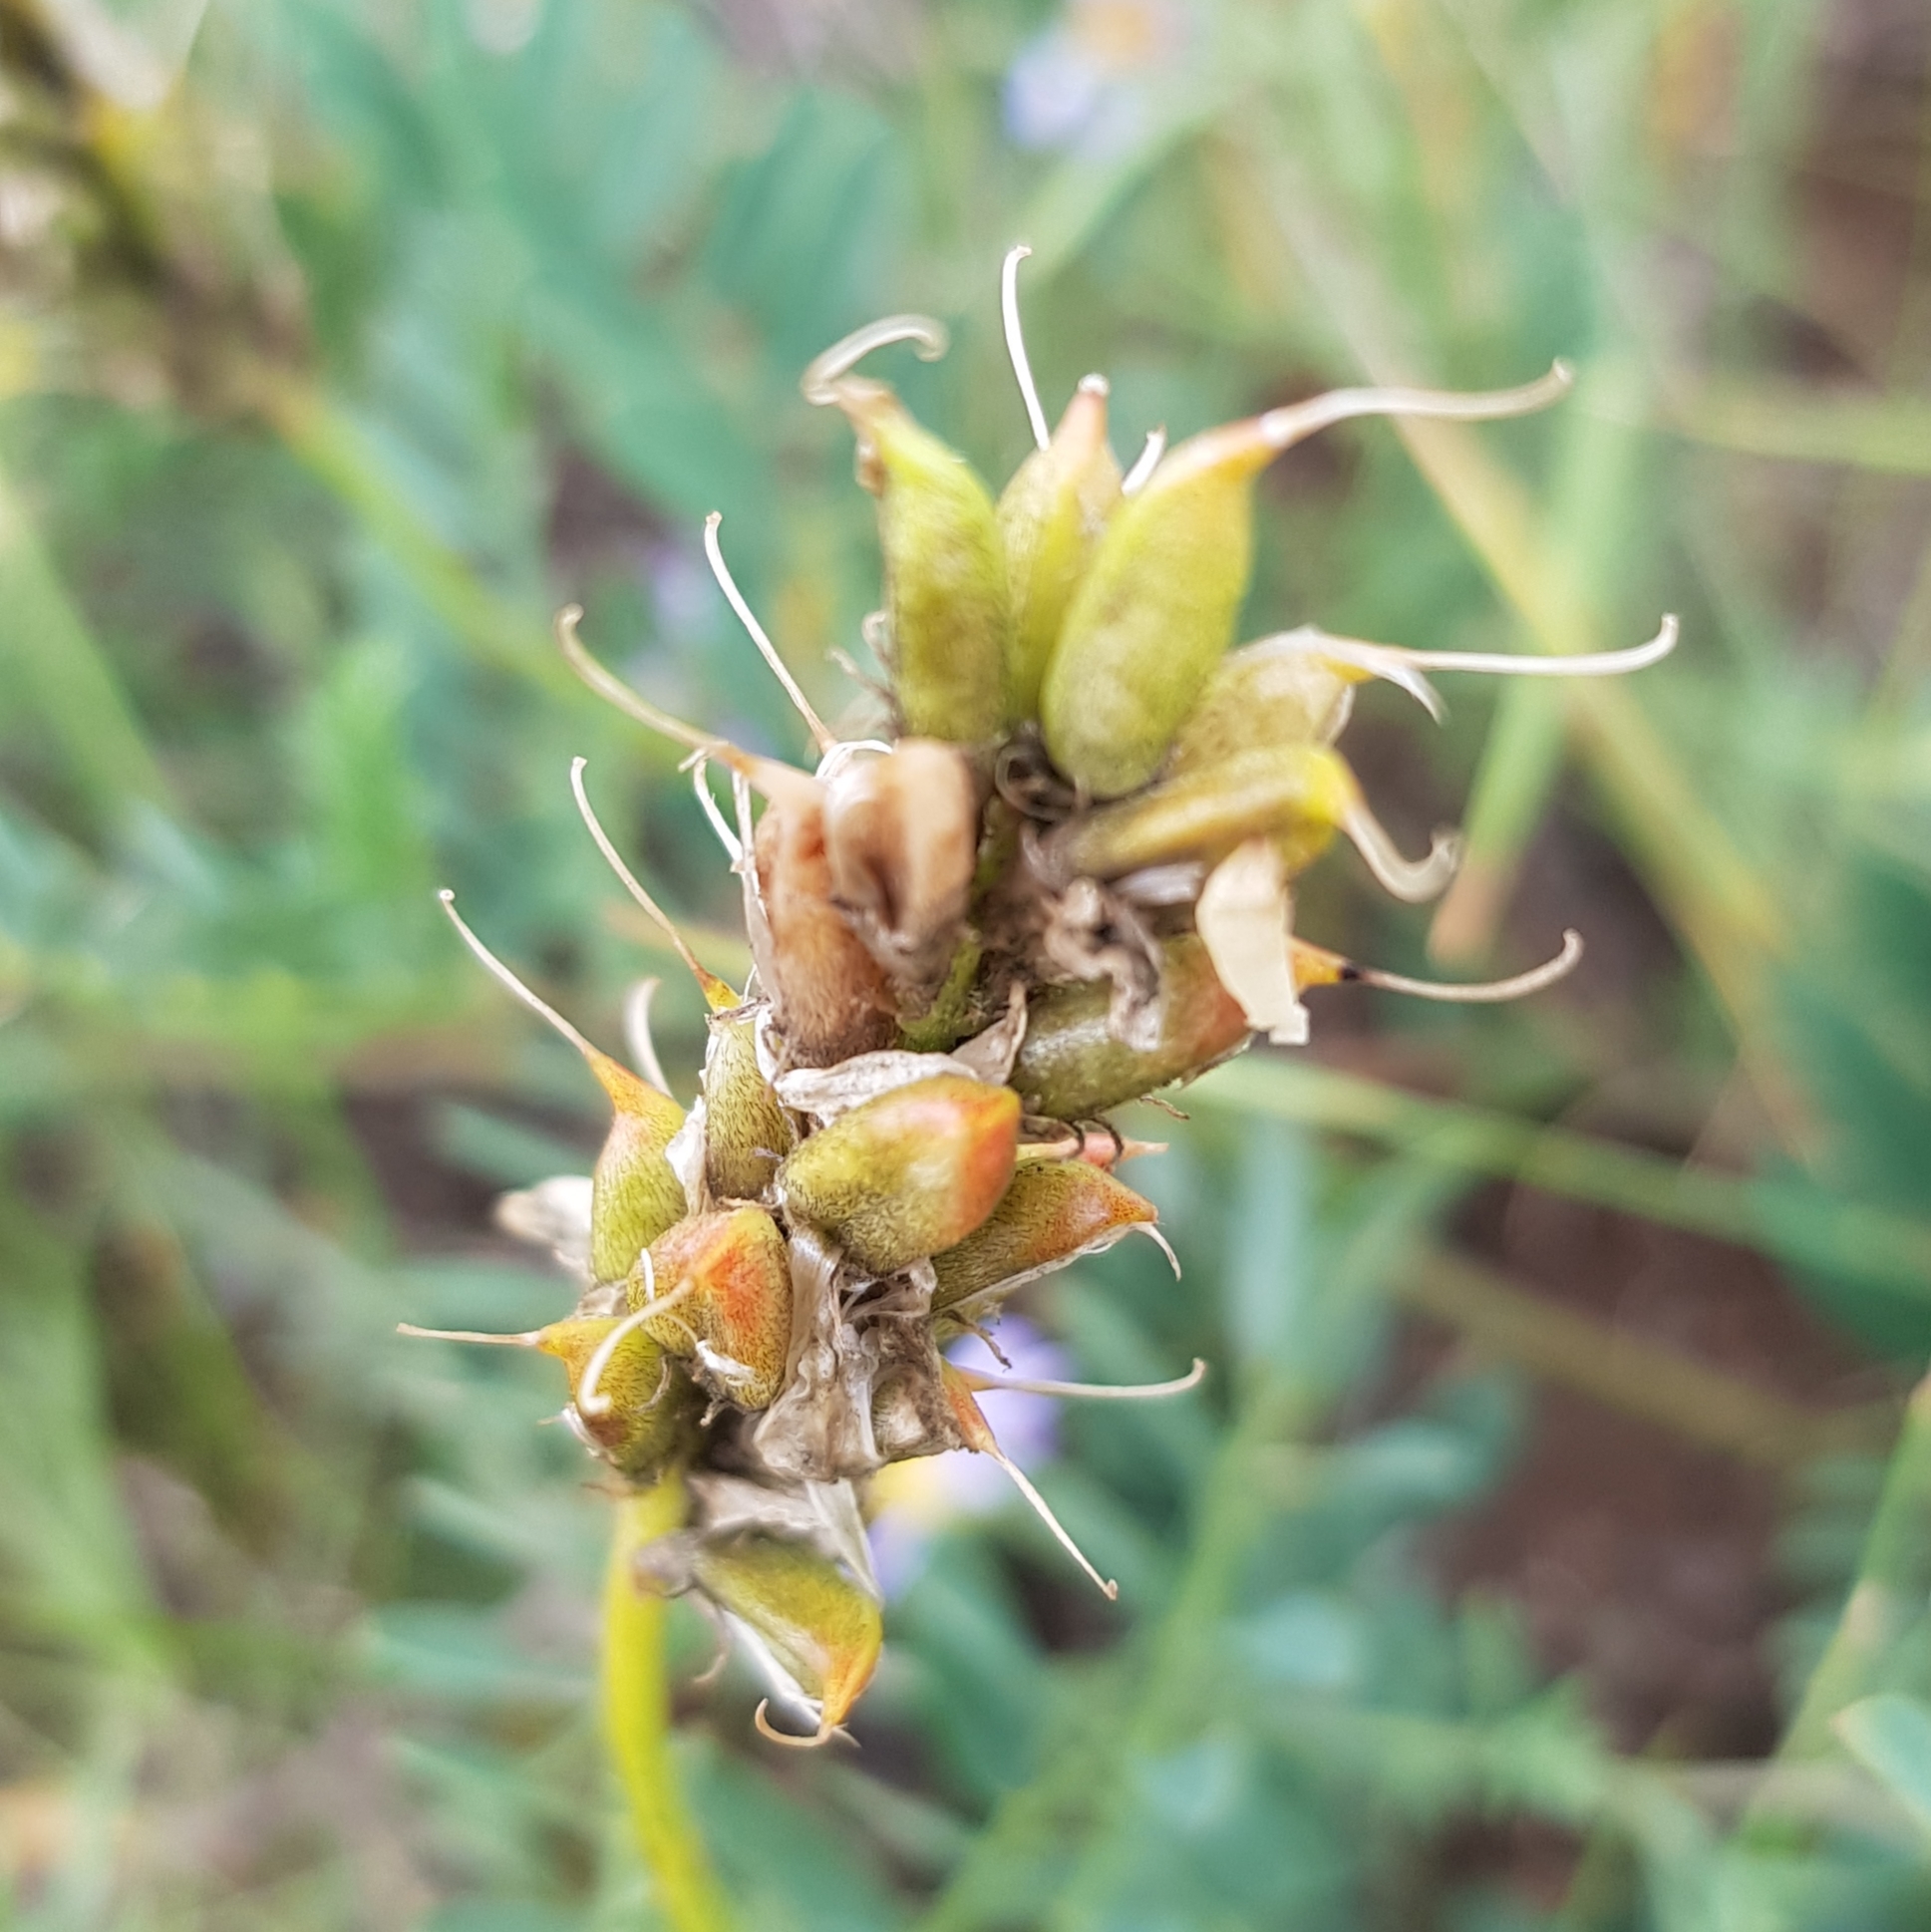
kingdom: Plantae
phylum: Tracheophyta
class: Magnoliopsida
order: Fabales
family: Fabaceae
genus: Astragalus
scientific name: Astragalus laxmannii
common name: Laxmann's milk-vetch
